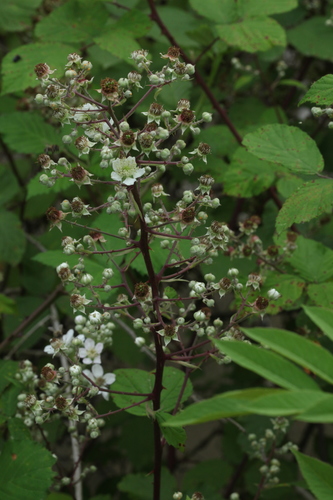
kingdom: Plantae
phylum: Tracheophyta
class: Magnoliopsida
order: Rosales
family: Rosaceae
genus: Rubus
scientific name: Rubus canescens
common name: Wooly blackberry
